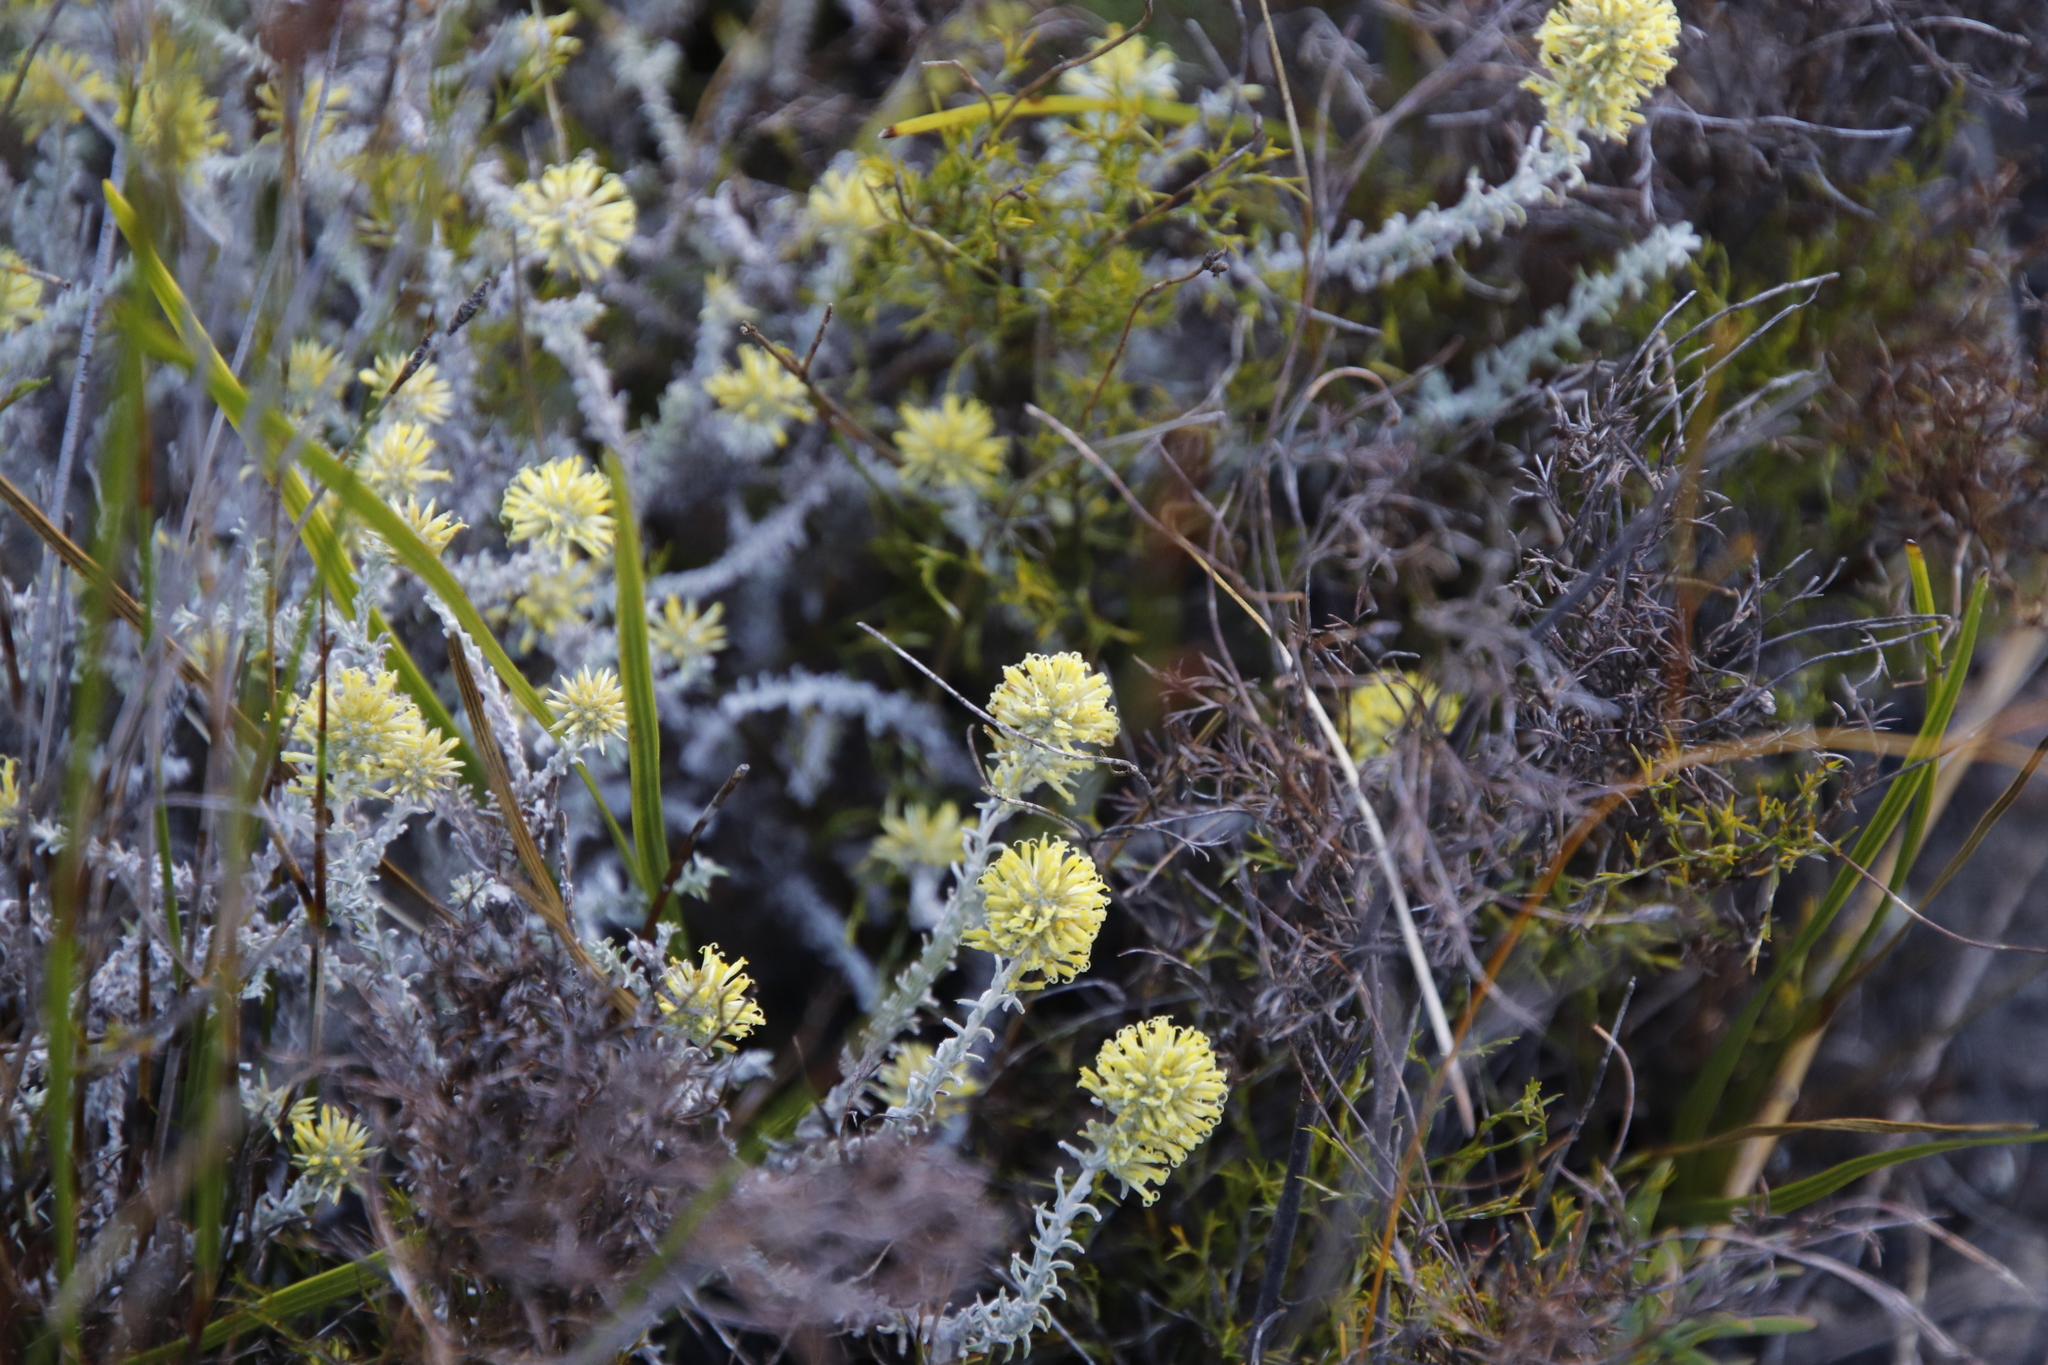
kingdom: Plantae
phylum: Tracheophyta
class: Magnoliopsida
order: Asterales
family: Asteraceae
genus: Seriphium
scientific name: Seriphium spirale
